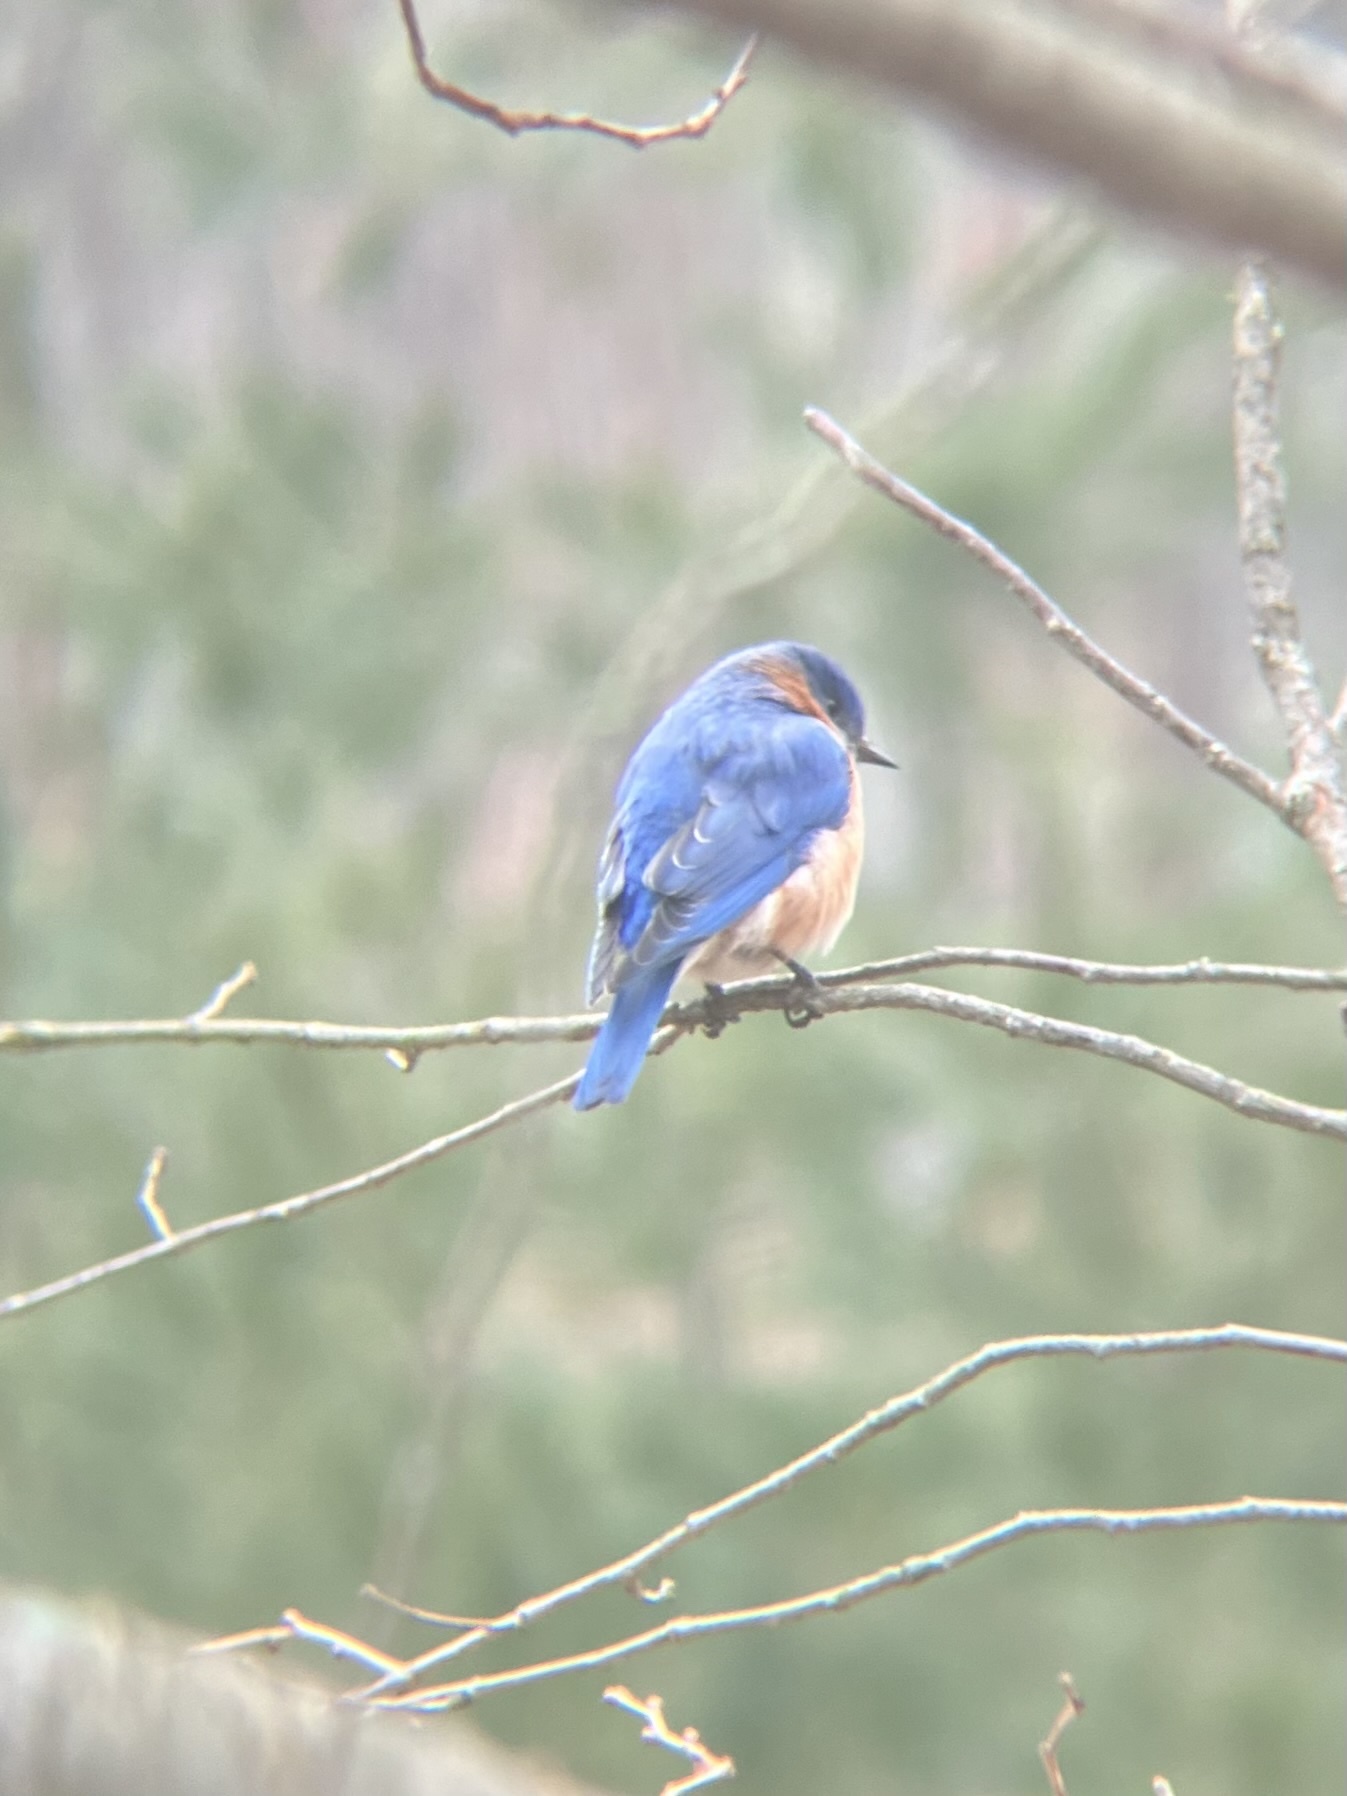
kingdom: Animalia
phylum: Chordata
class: Aves
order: Passeriformes
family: Turdidae
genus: Sialia
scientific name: Sialia sialis
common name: Eastern bluebird
